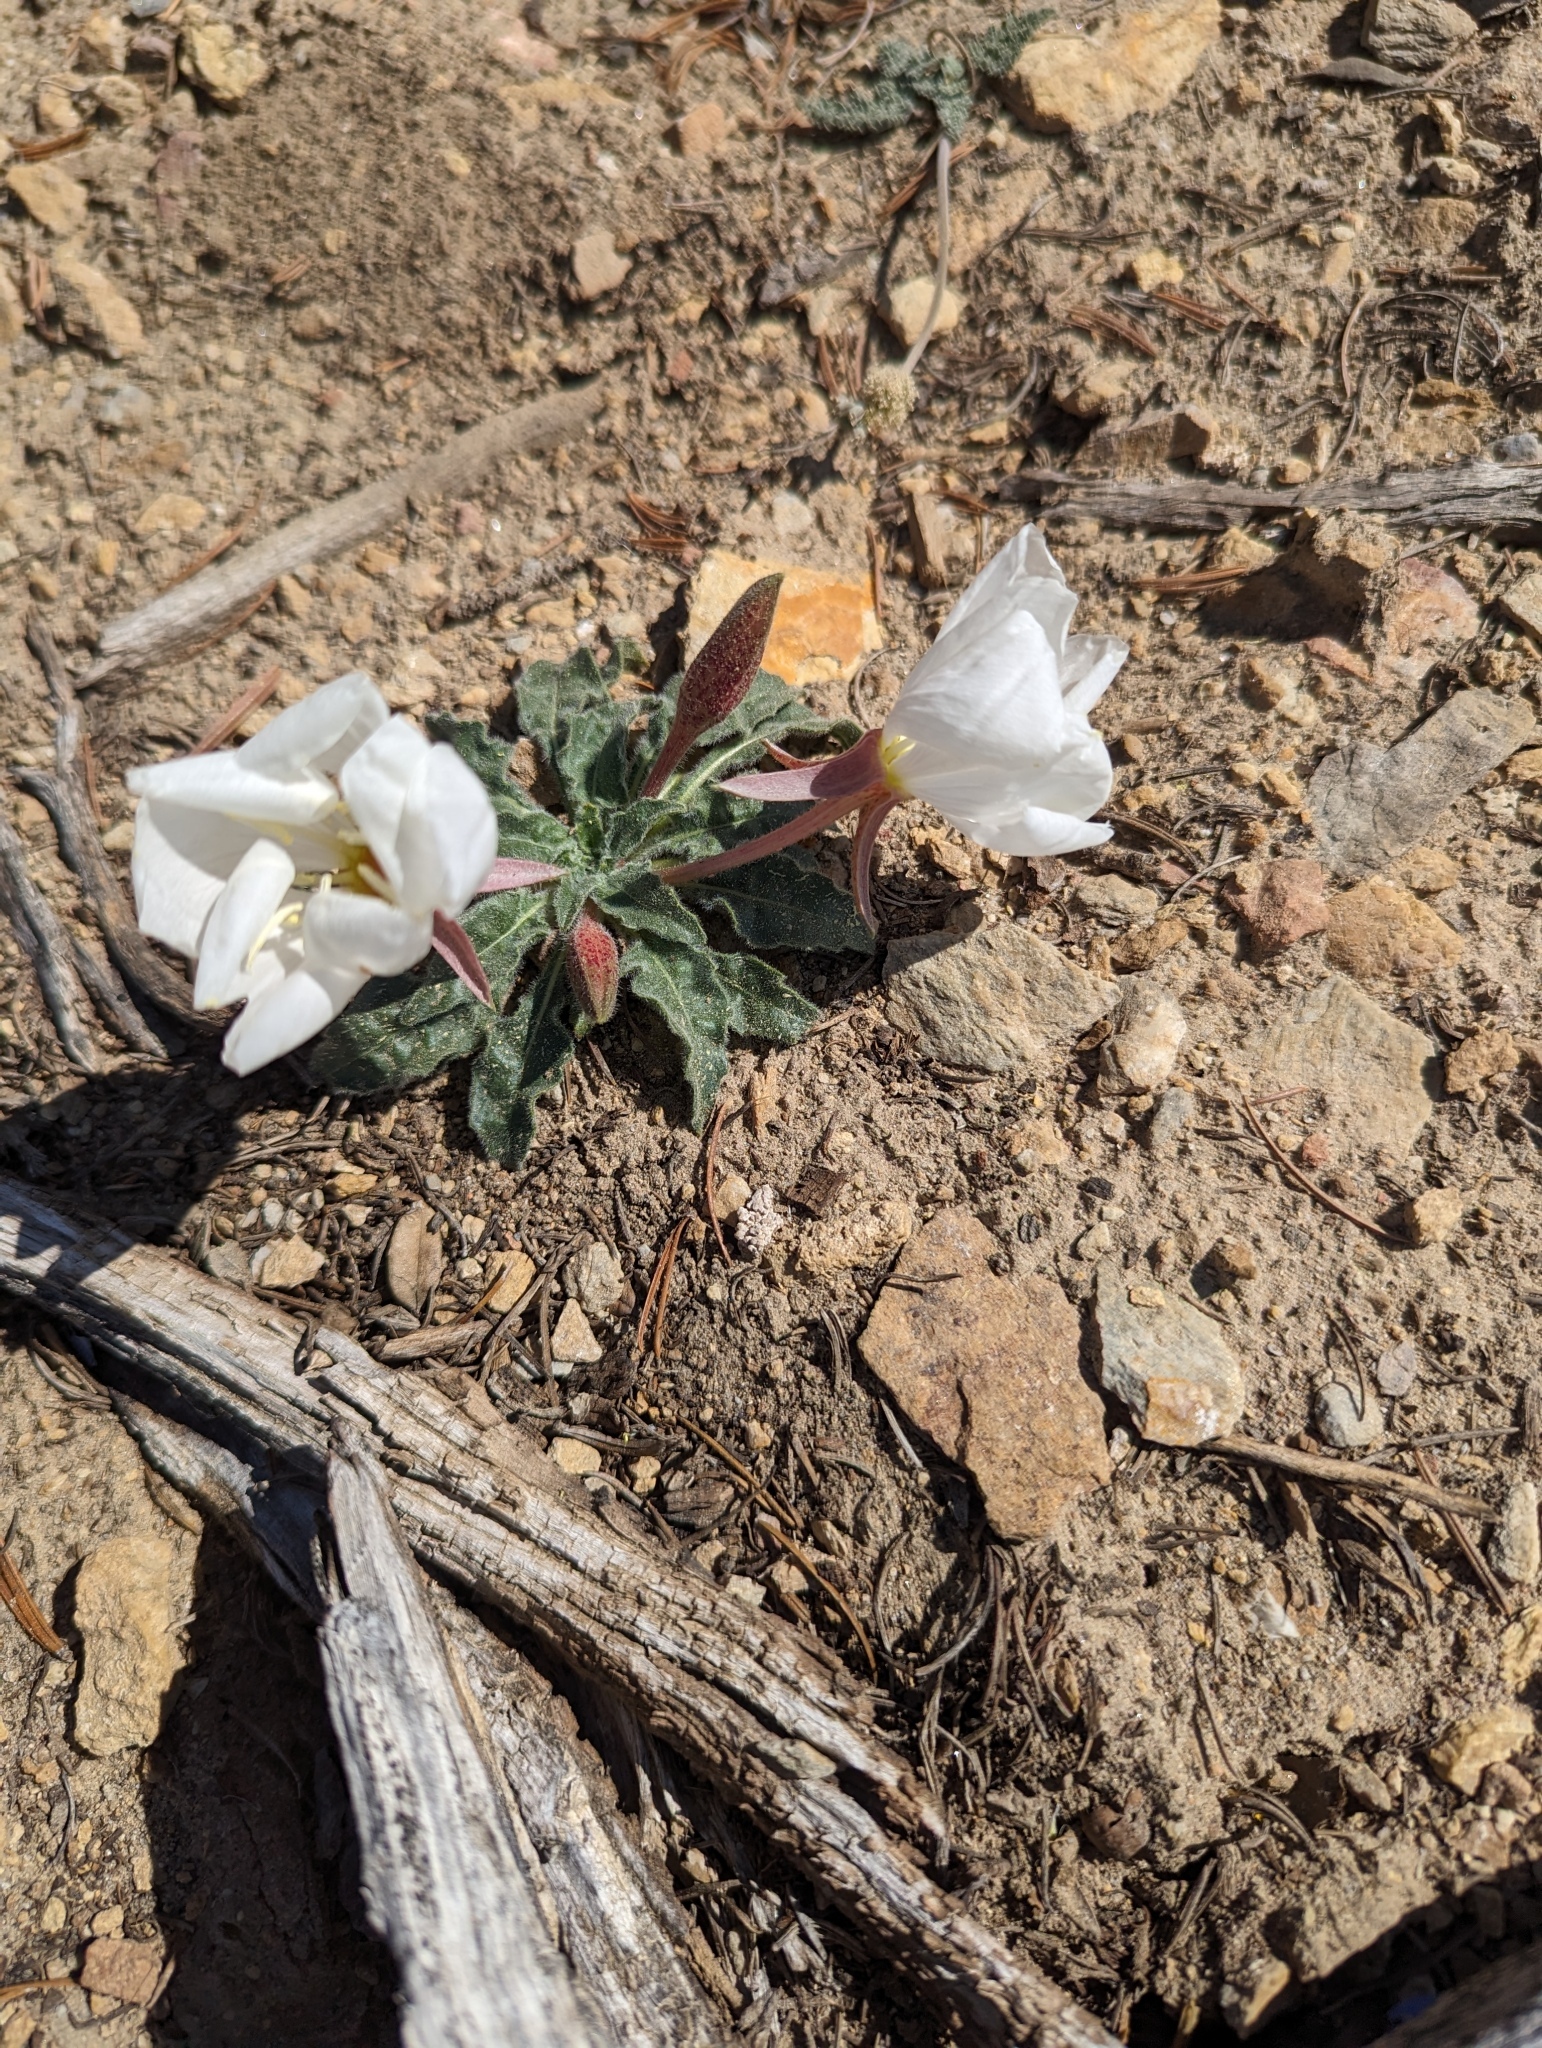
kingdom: Plantae
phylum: Tracheophyta
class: Magnoliopsida
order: Myrtales
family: Onagraceae
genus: Oenothera
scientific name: Oenothera cespitosa
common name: Tufted evening-primrose
